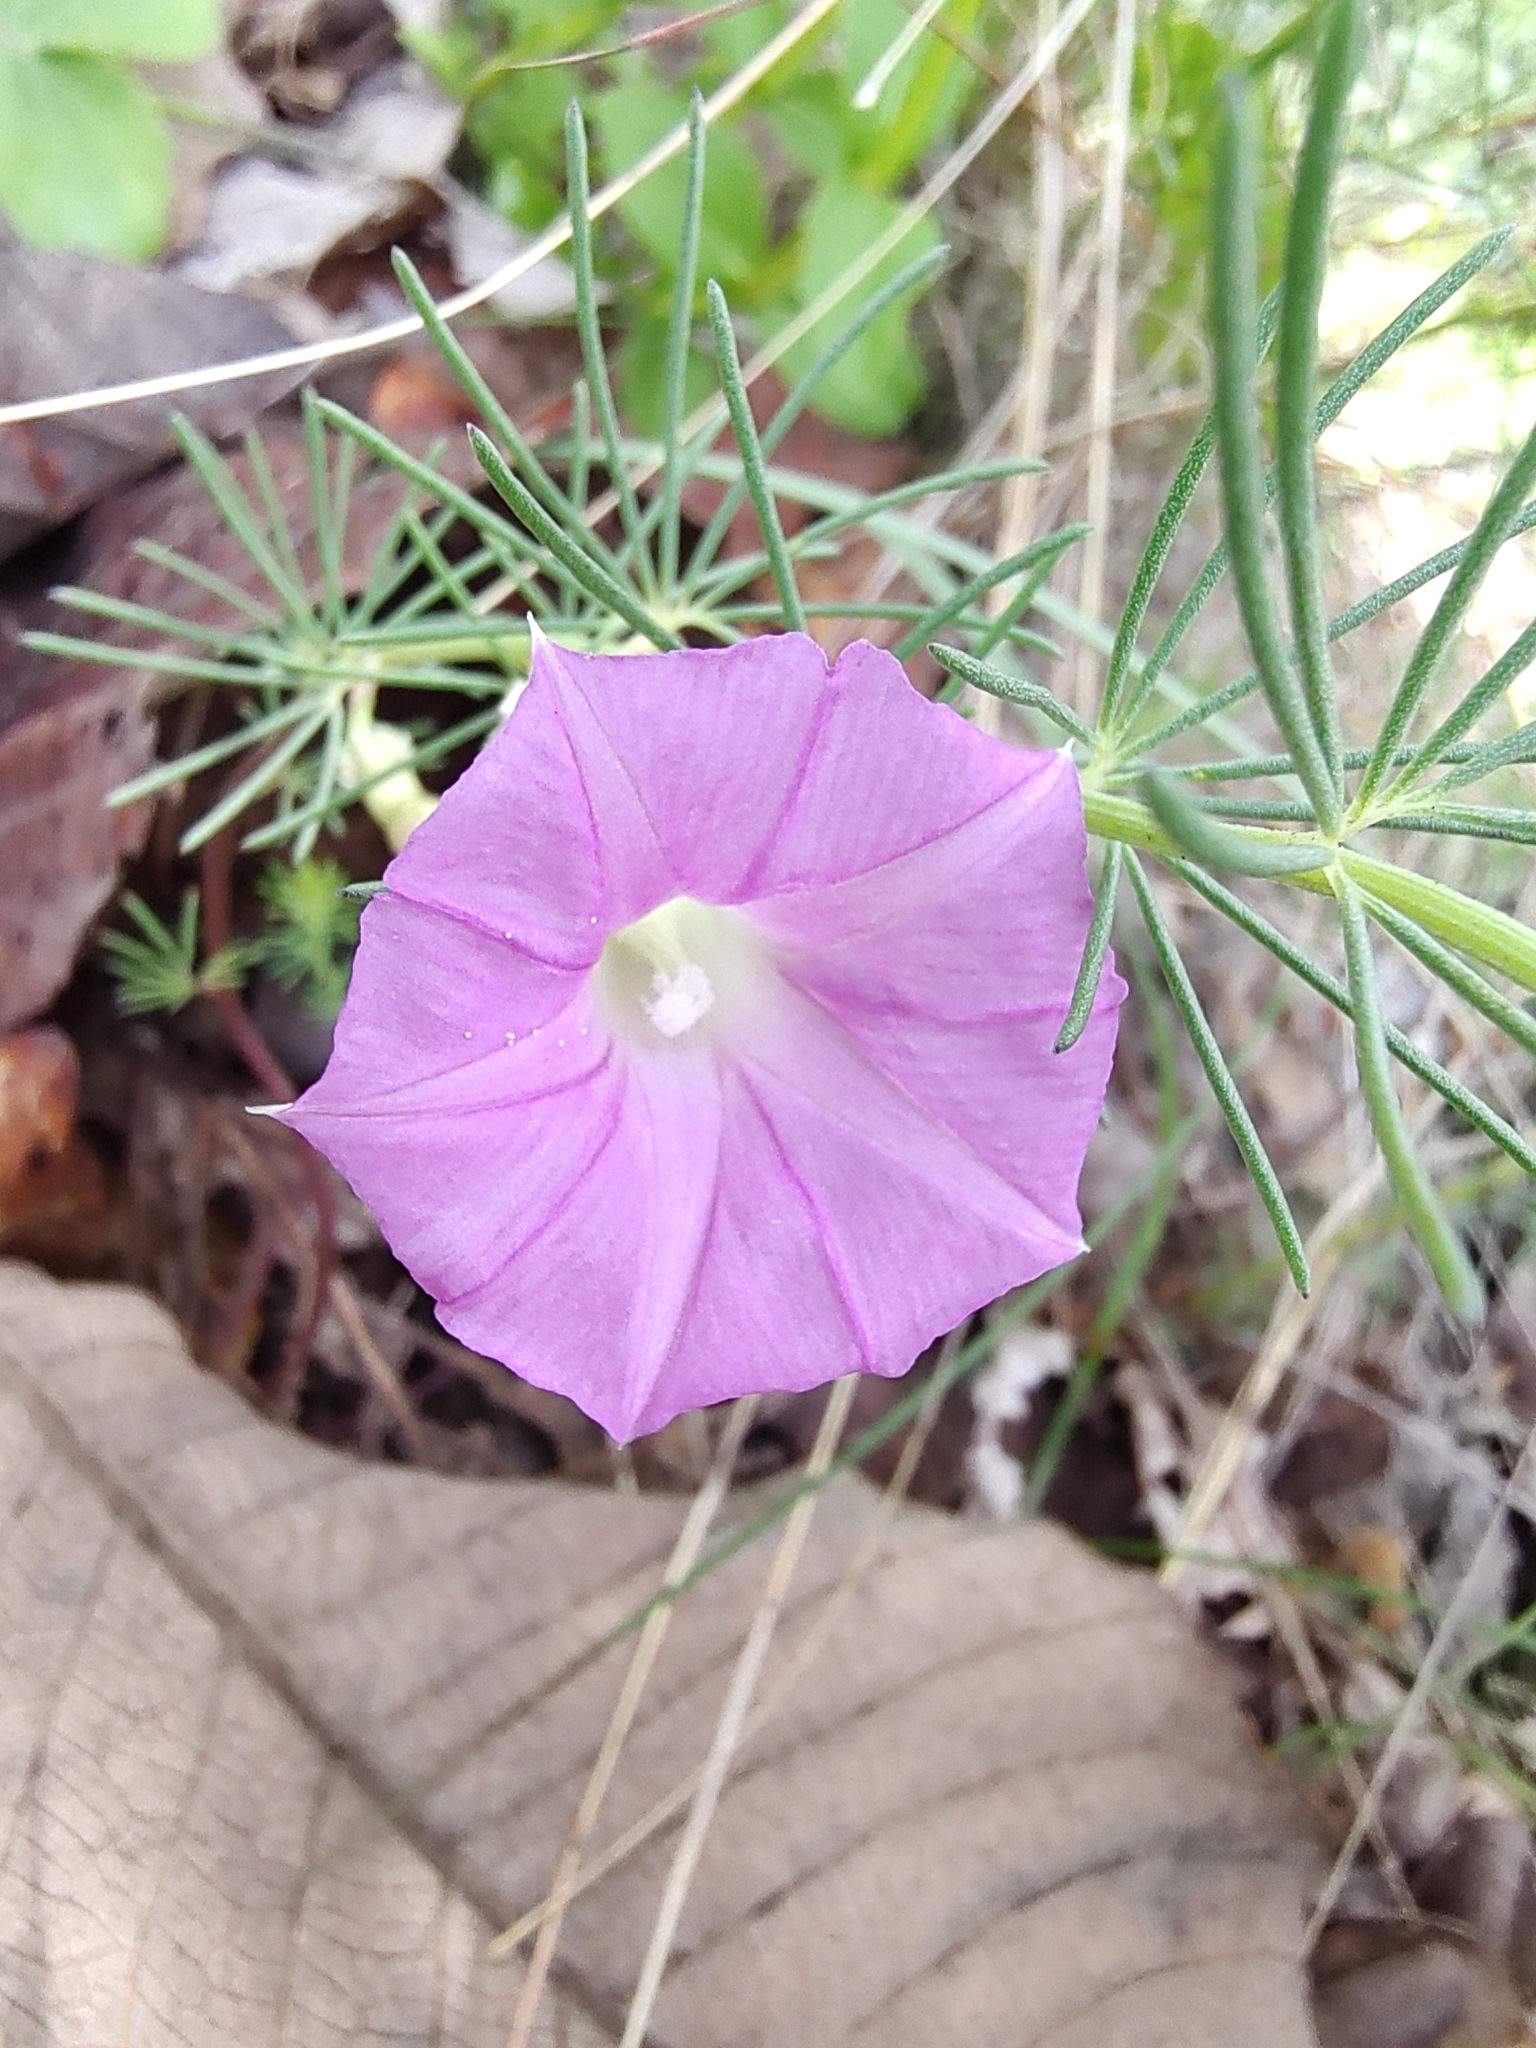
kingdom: Plantae
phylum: Tracheophyta
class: Magnoliopsida
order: Solanales
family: Convolvulaceae
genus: Ipomoea
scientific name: Ipomoea capillacea
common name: Purple morning-glory
